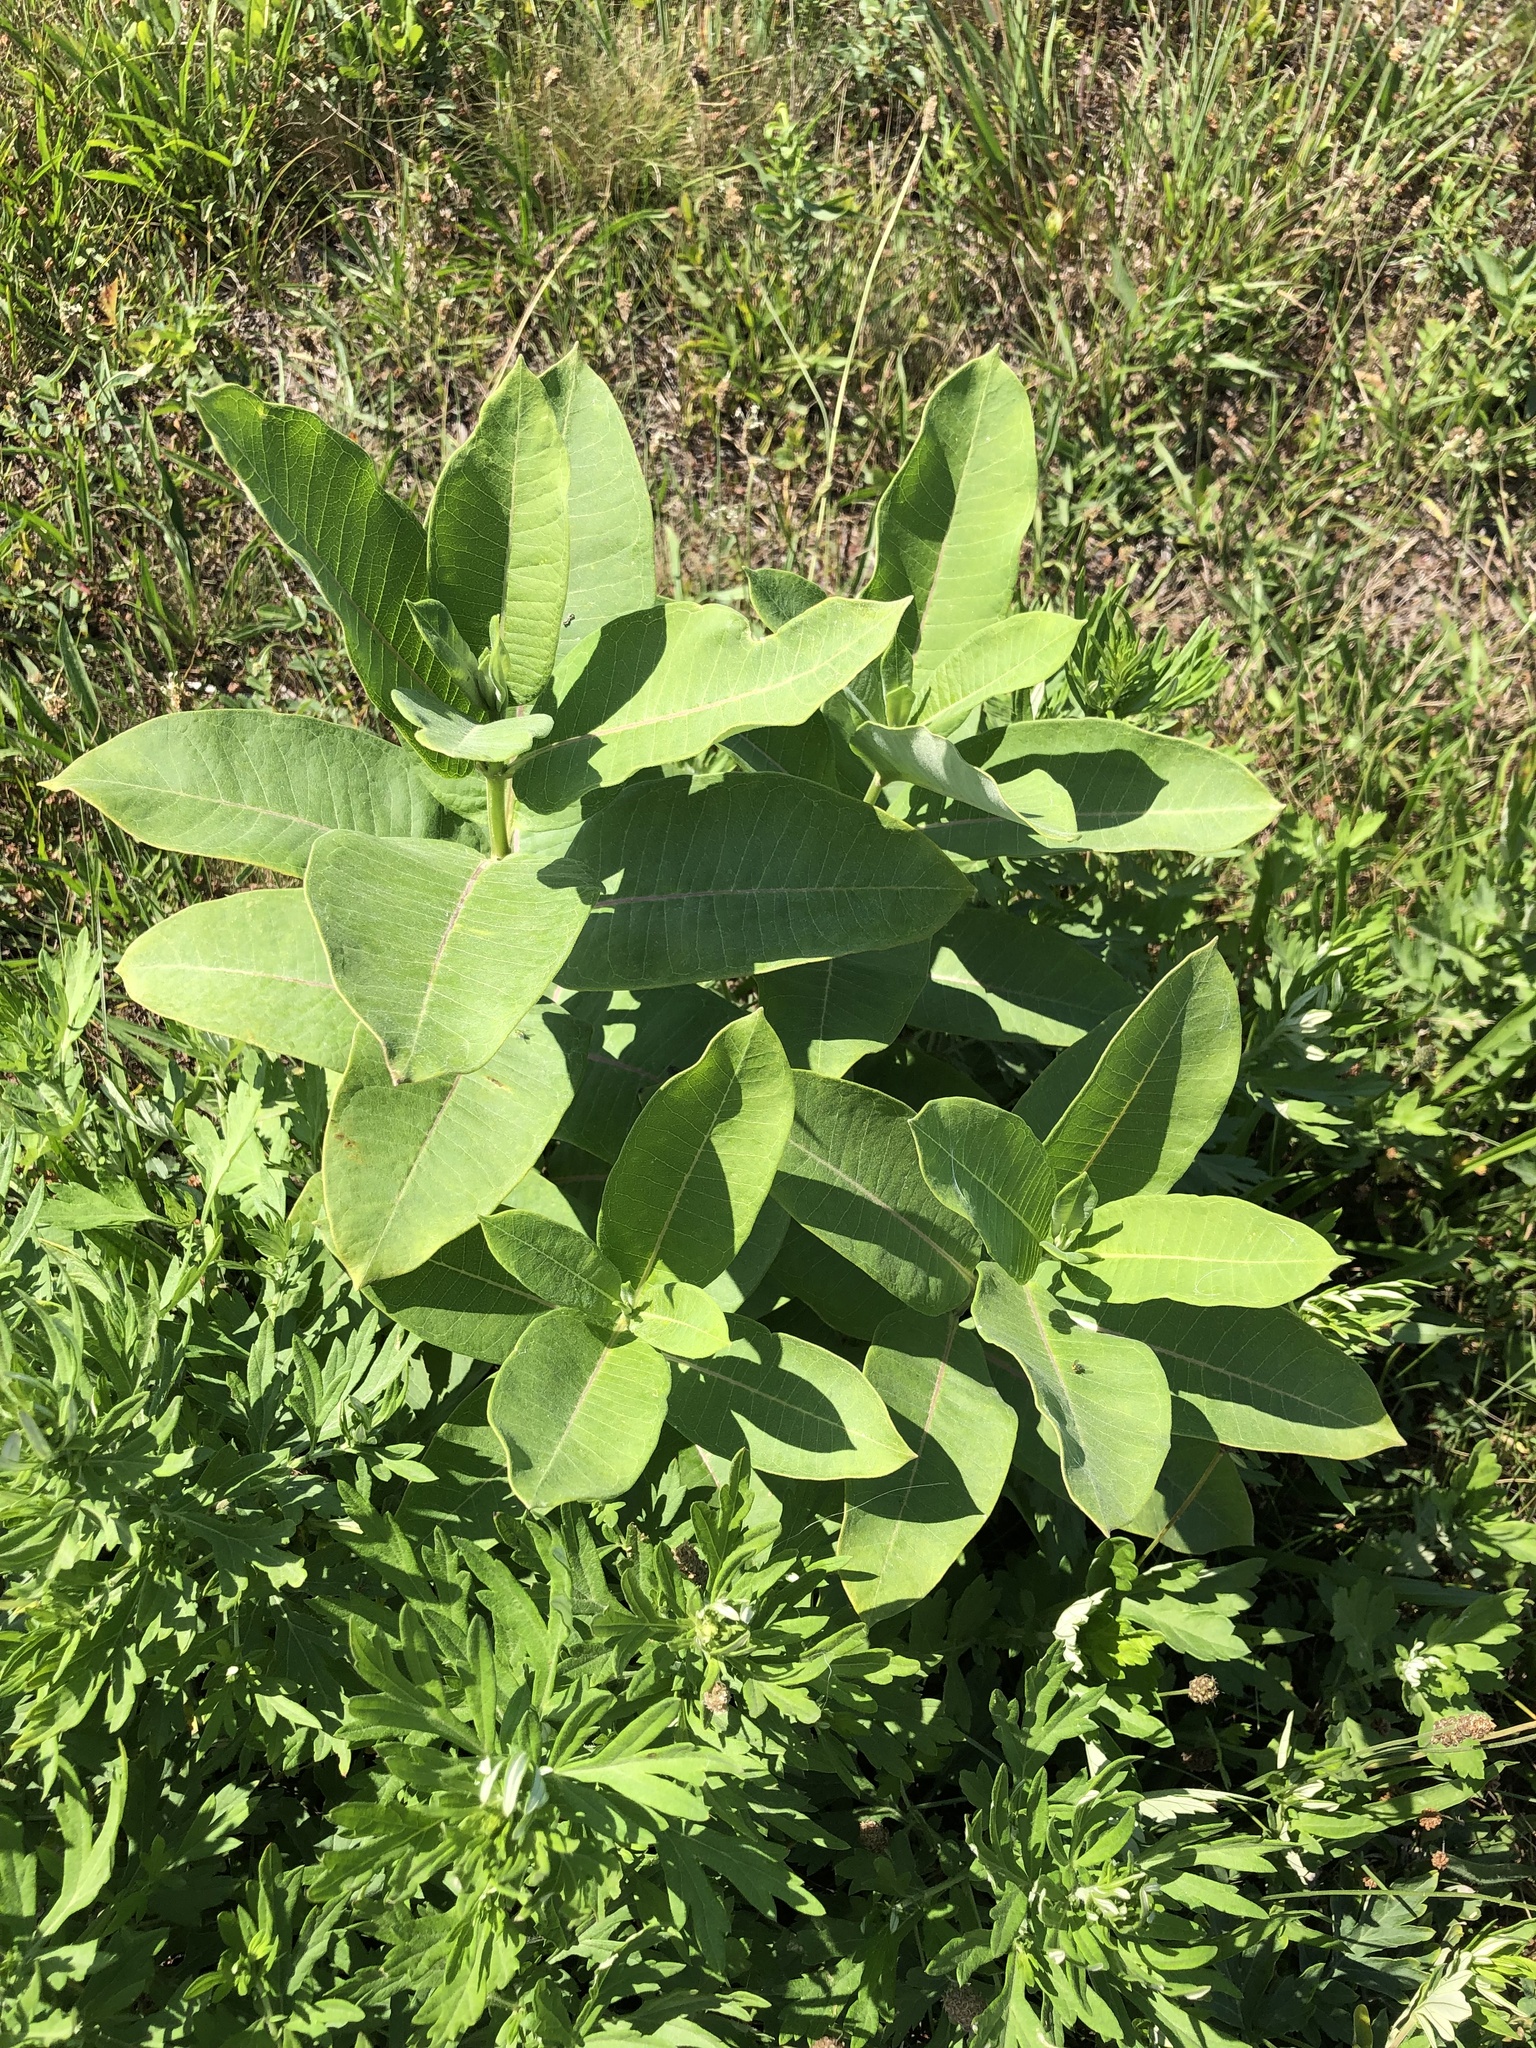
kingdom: Plantae
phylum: Tracheophyta
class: Magnoliopsida
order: Gentianales
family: Apocynaceae
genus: Asclepias
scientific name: Asclepias syriaca
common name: Common milkweed
